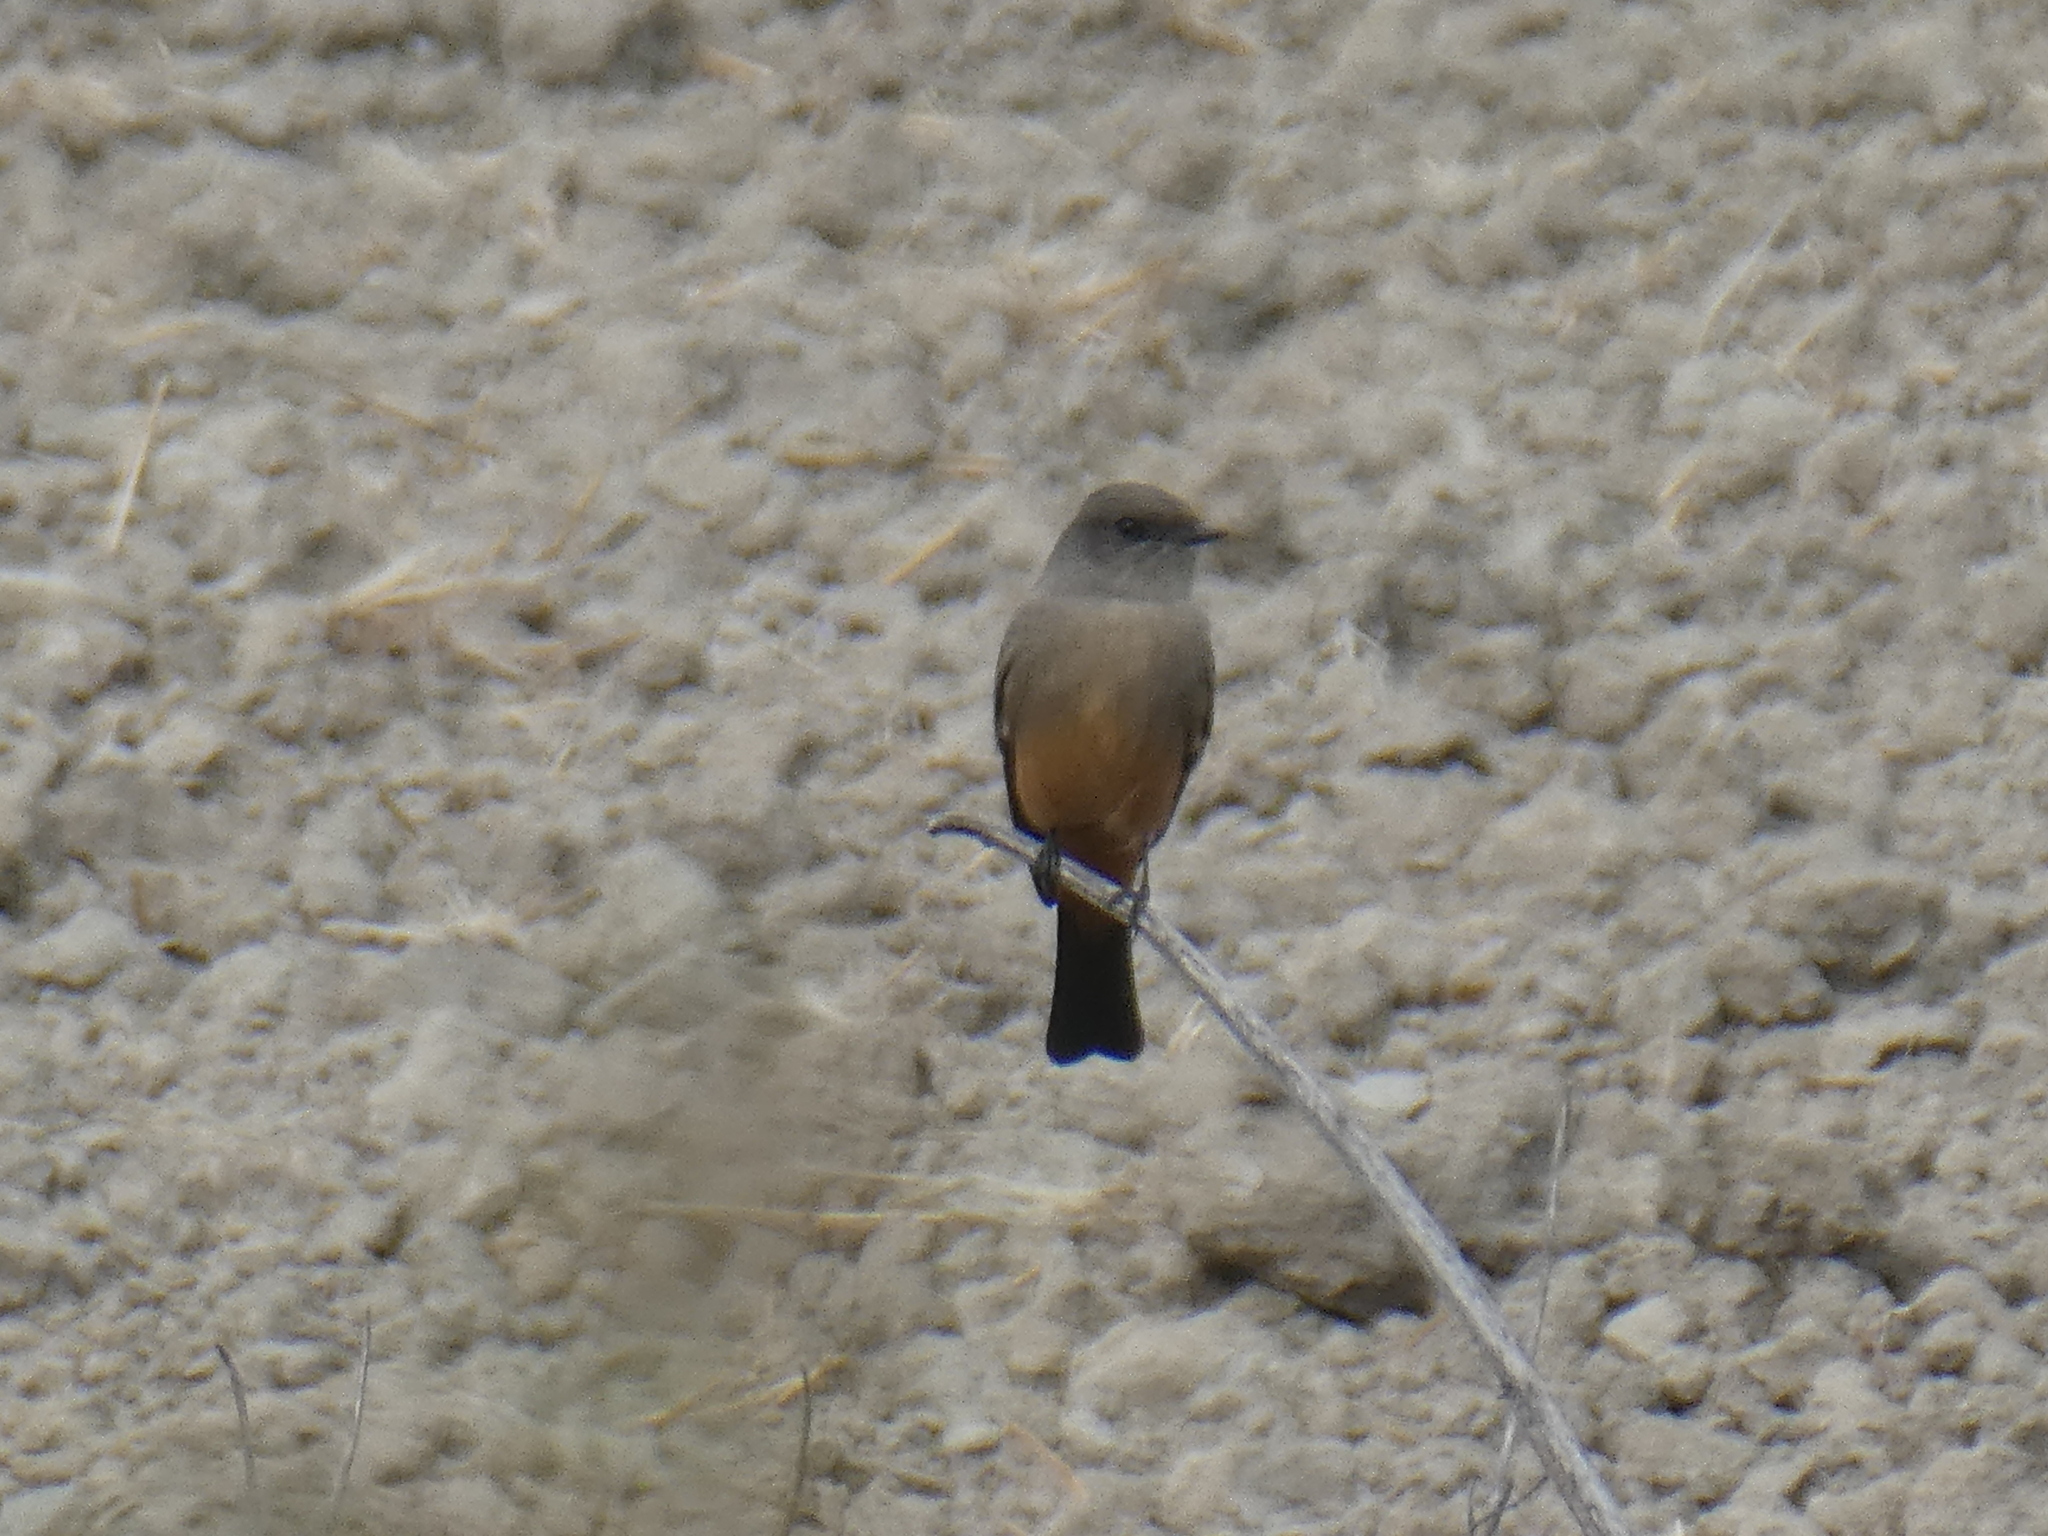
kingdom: Animalia
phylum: Chordata
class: Aves
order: Passeriformes
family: Tyrannidae
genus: Sayornis
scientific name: Sayornis saya
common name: Say's phoebe
